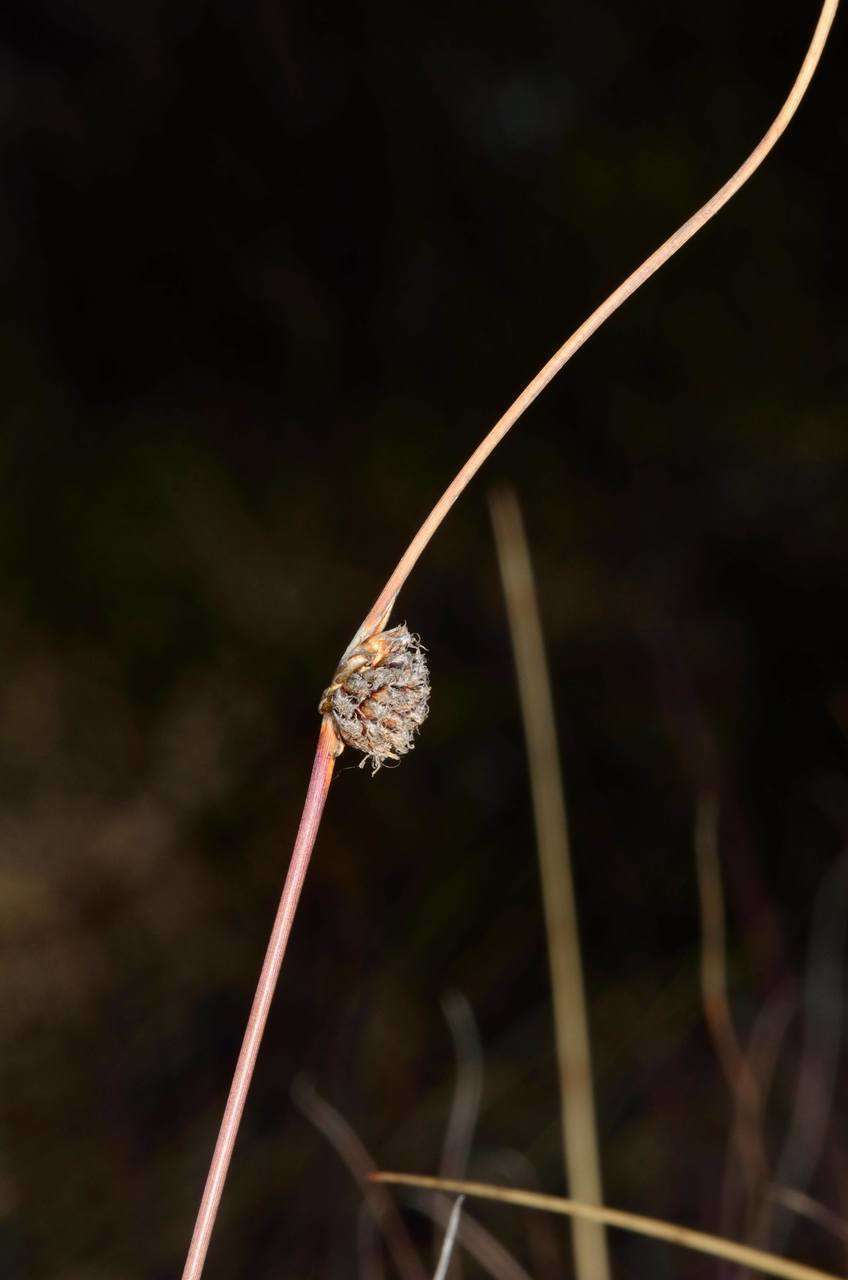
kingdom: Plantae
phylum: Tracheophyta
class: Liliopsida
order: Poales
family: Cyperaceae
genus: Chorizandra
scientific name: Chorizandra enodis
